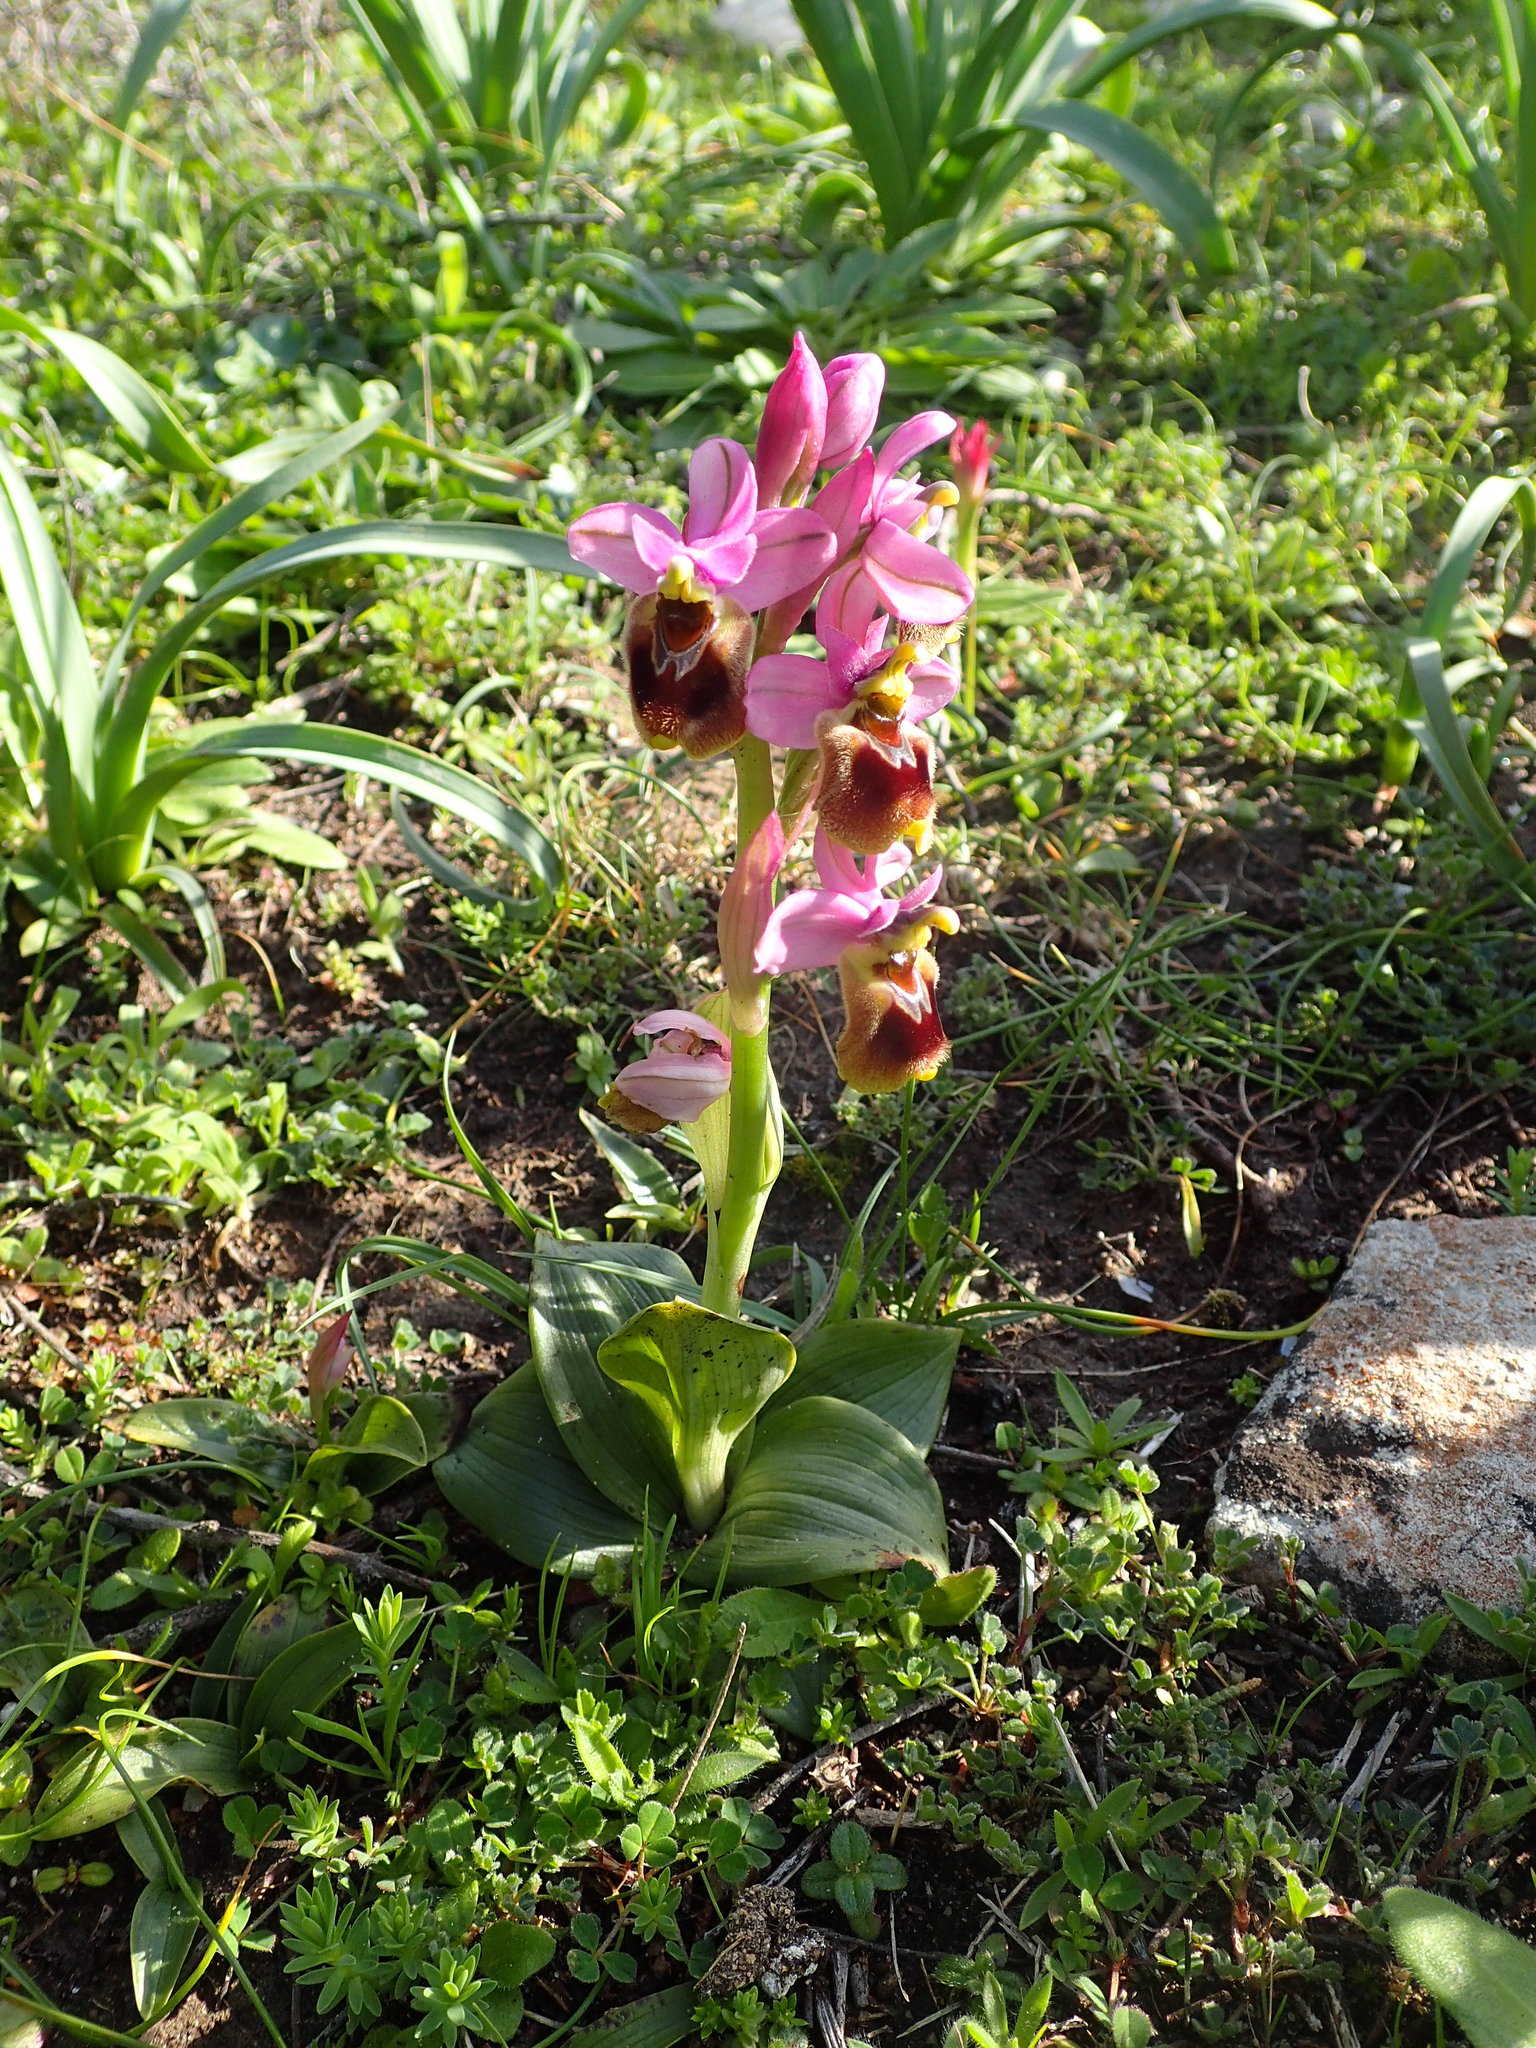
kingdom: Plantae
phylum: Tracheophyta
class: Liliopsida
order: Asparagales
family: Orchidaceae
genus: Ophrys
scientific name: Ophrys tenthredinifera
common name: Sawfly orchid
